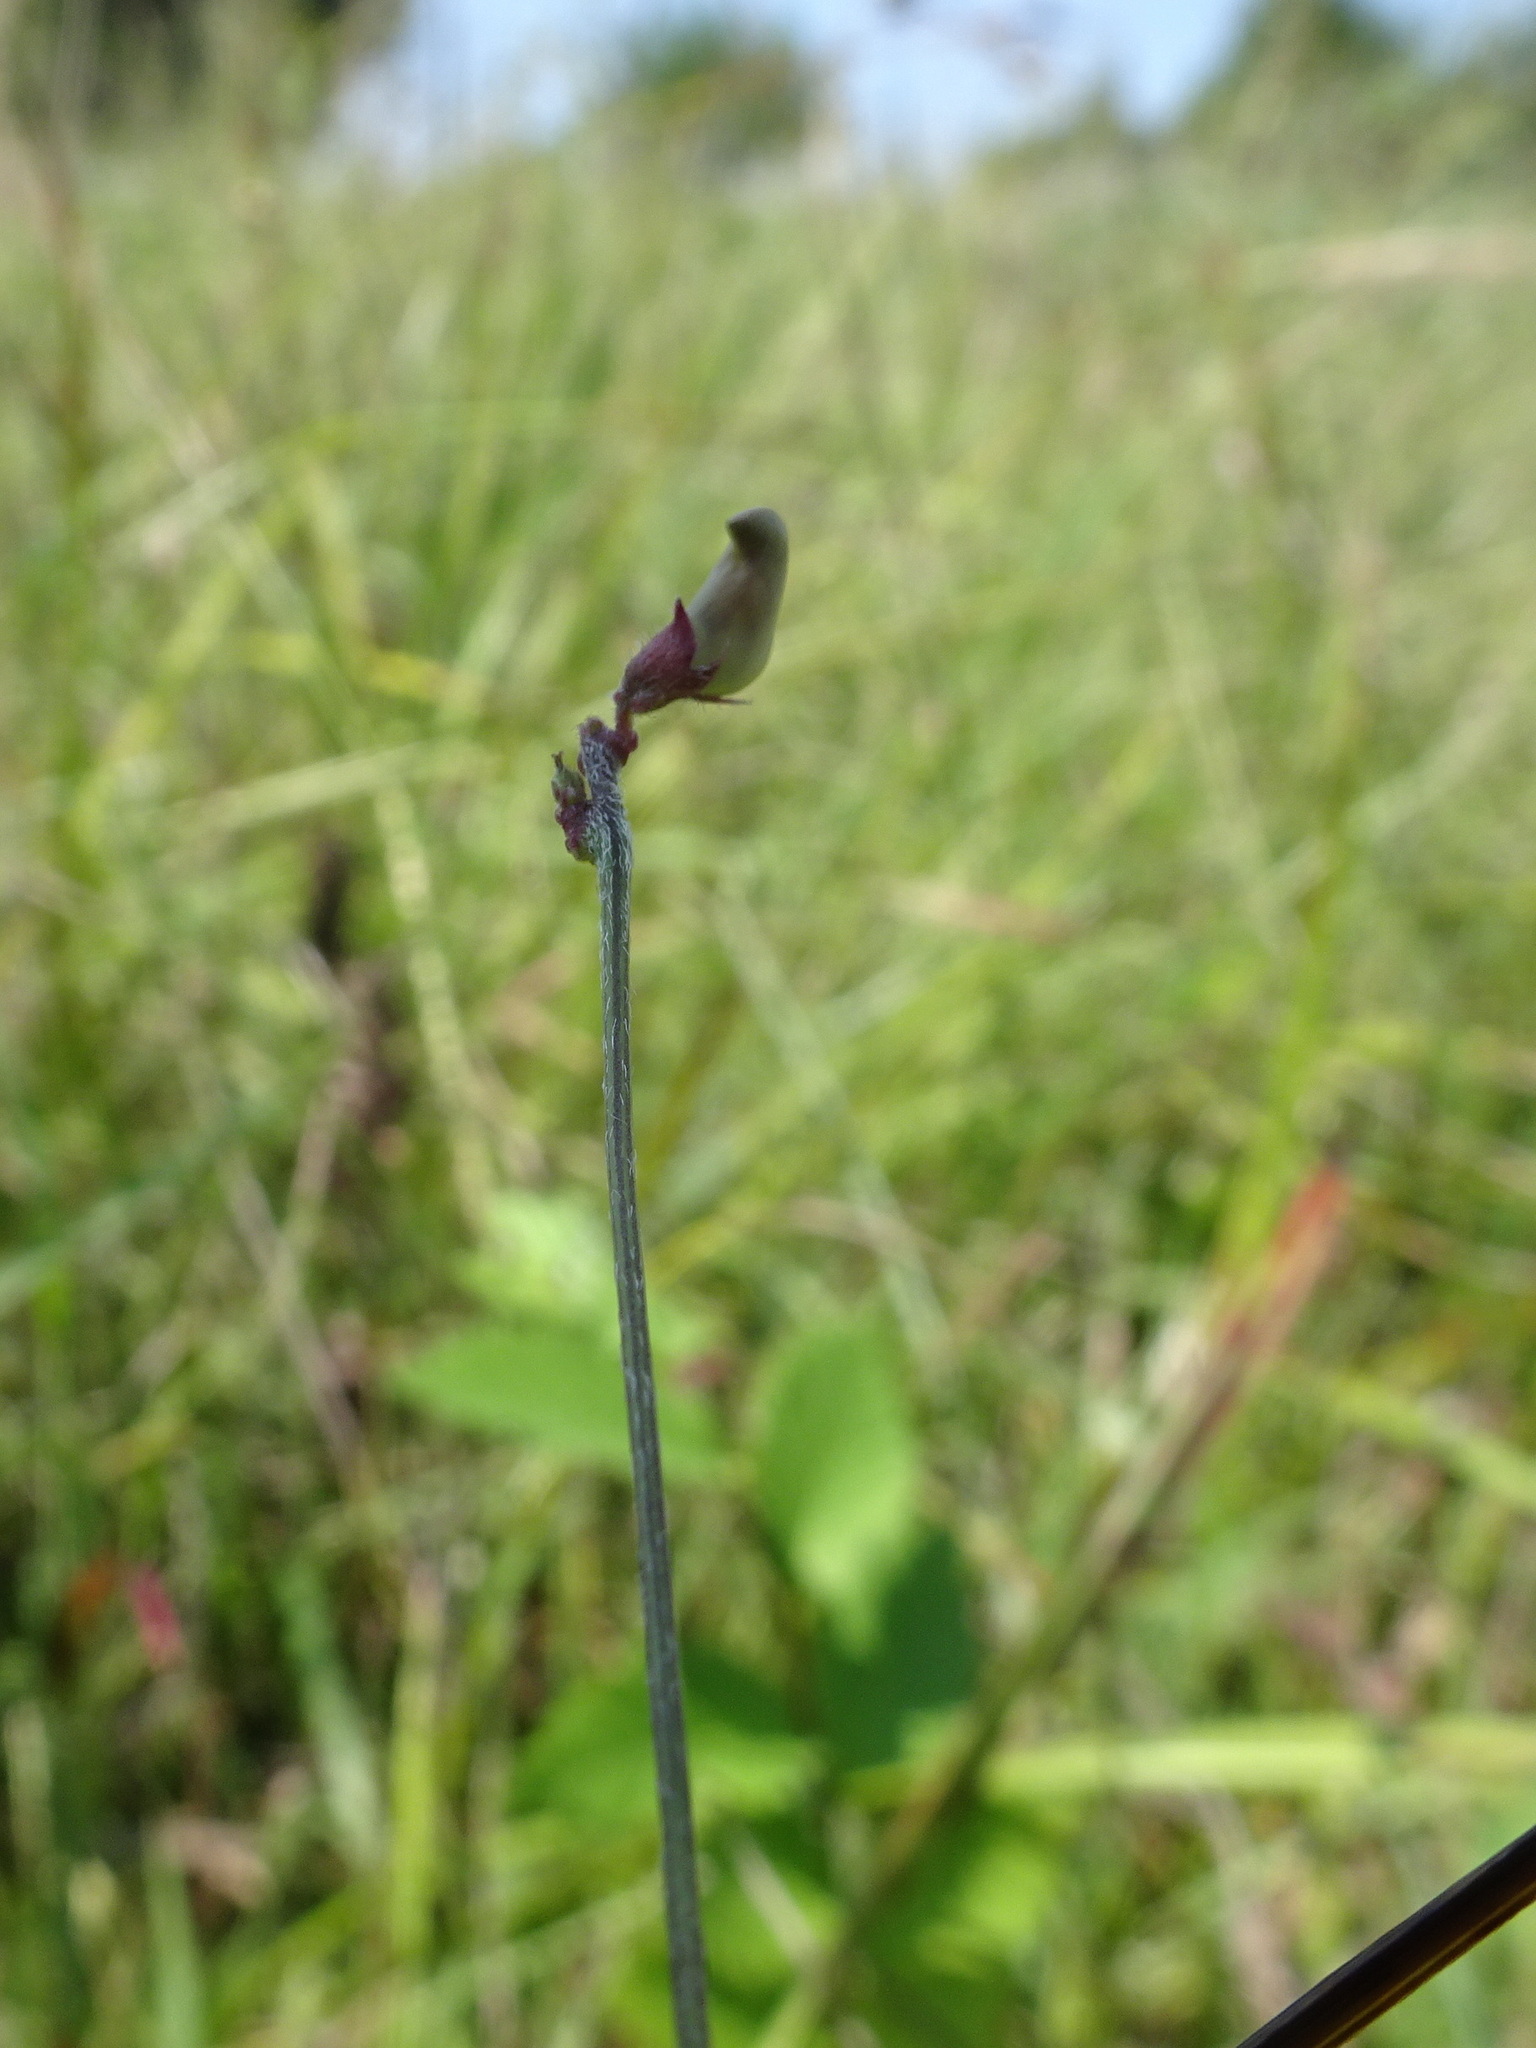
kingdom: Plantae
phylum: Tracheophyta
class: Magnoliopsida
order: Fabales
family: Fabaceae
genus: Strophostyles
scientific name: Strophostyles leiosperma
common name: Smooth-seed wild bean
